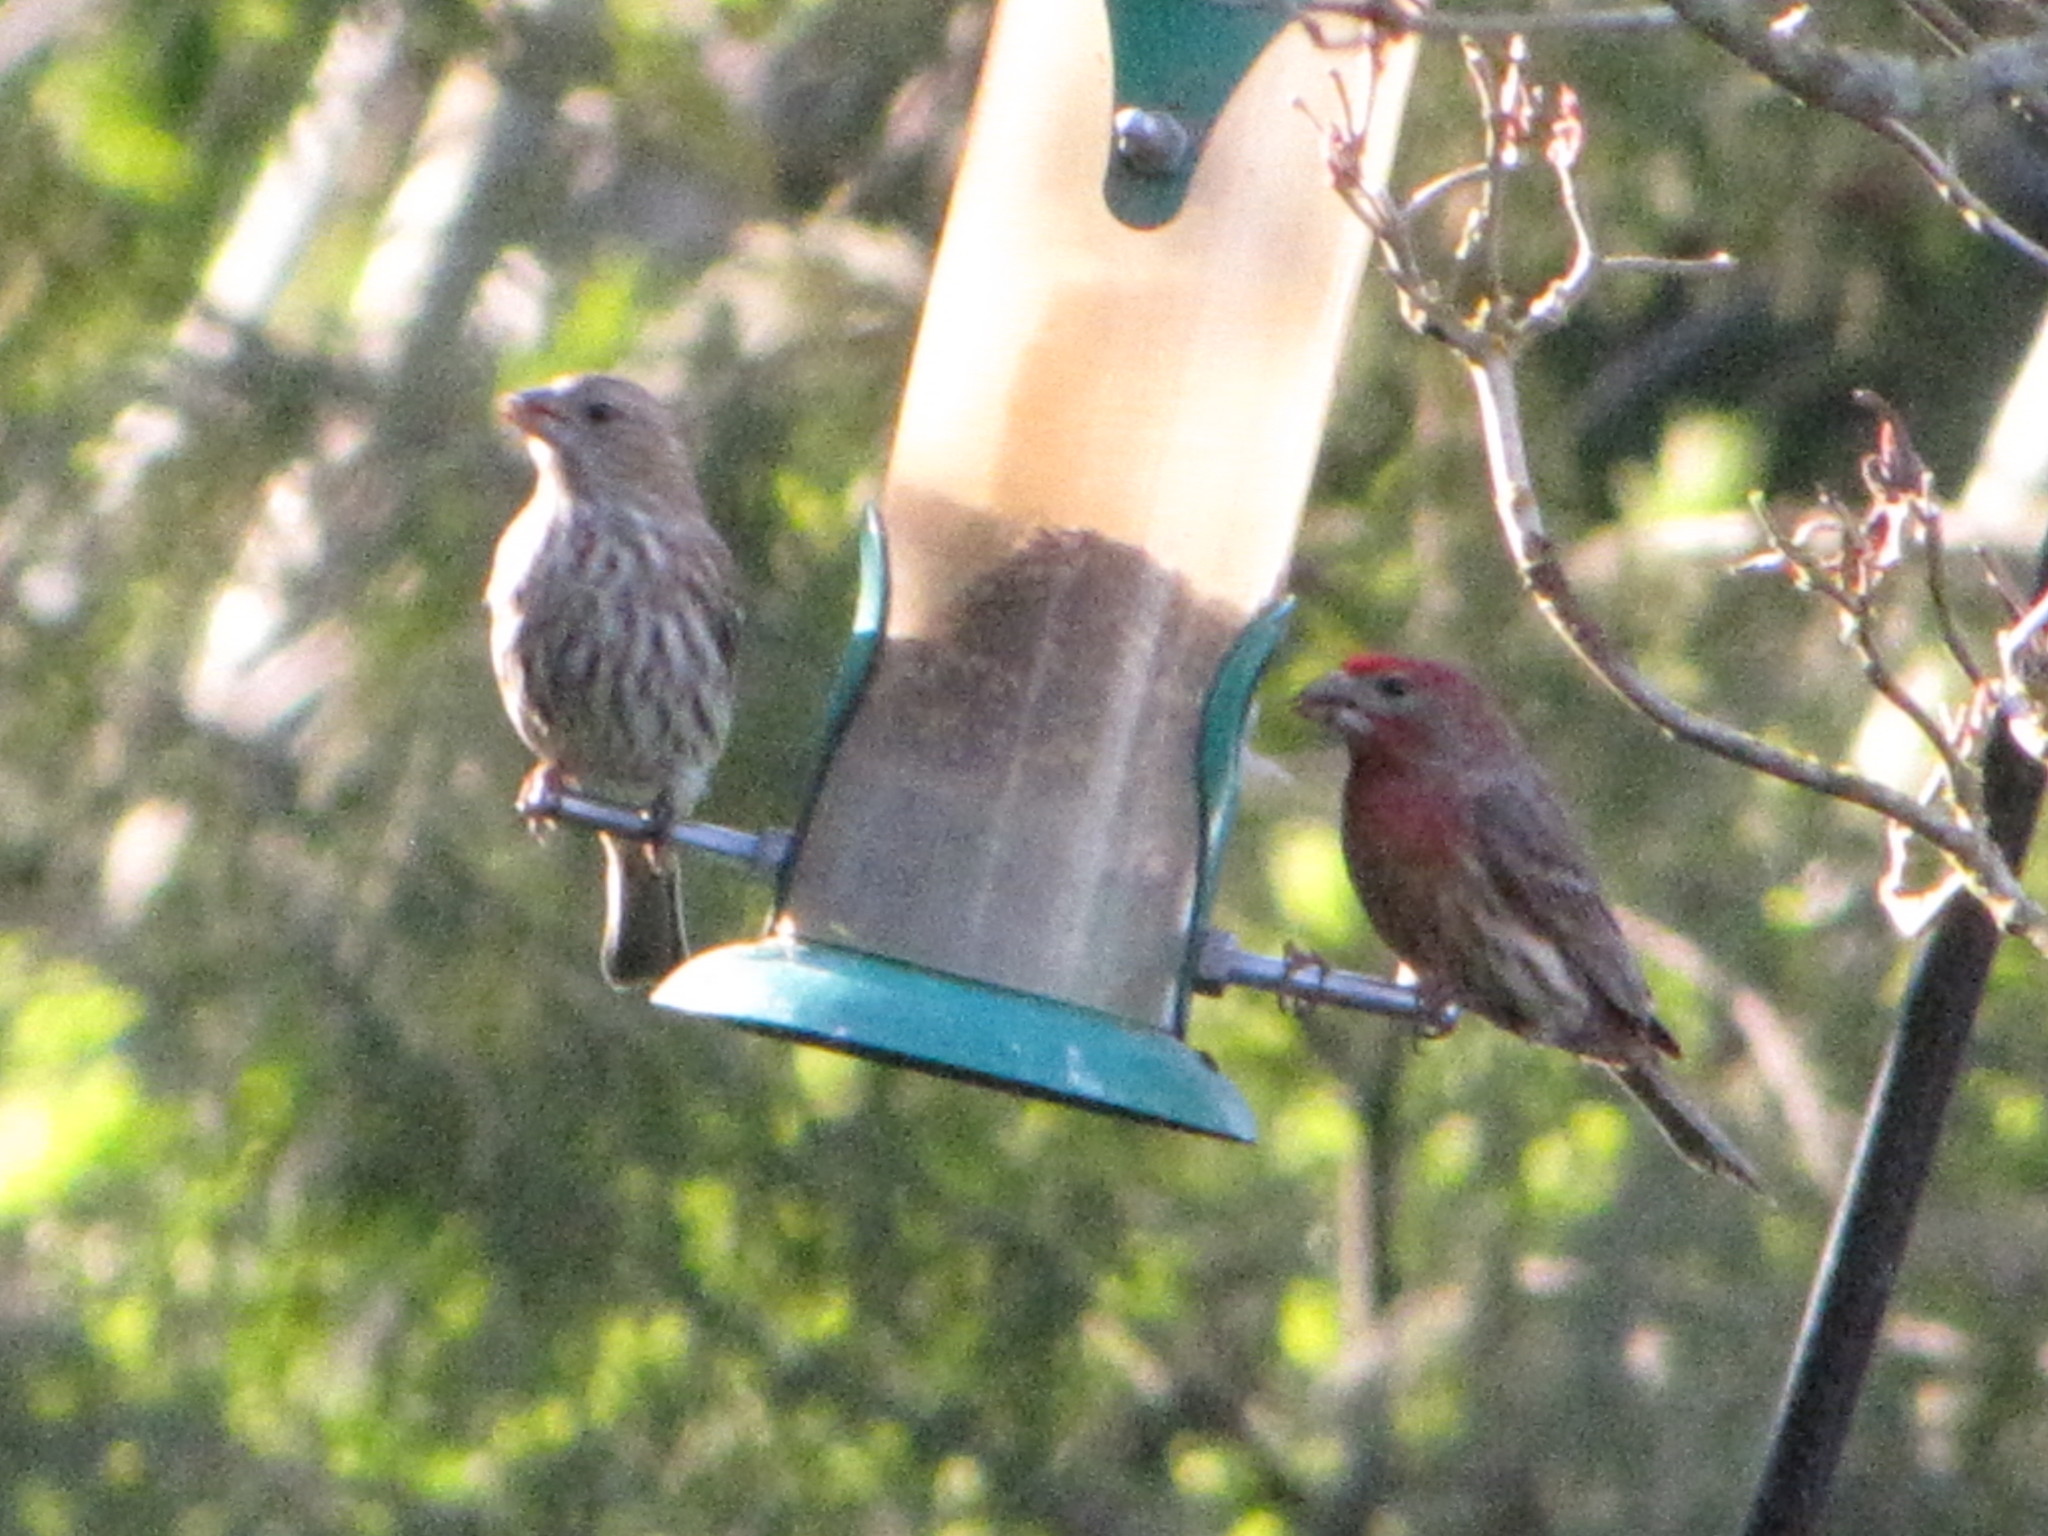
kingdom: Animalia
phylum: Chordata
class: Aves
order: Passeriformes
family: Fringillidae
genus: Haemorhous
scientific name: Haemorhous mexicanus
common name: House finch
